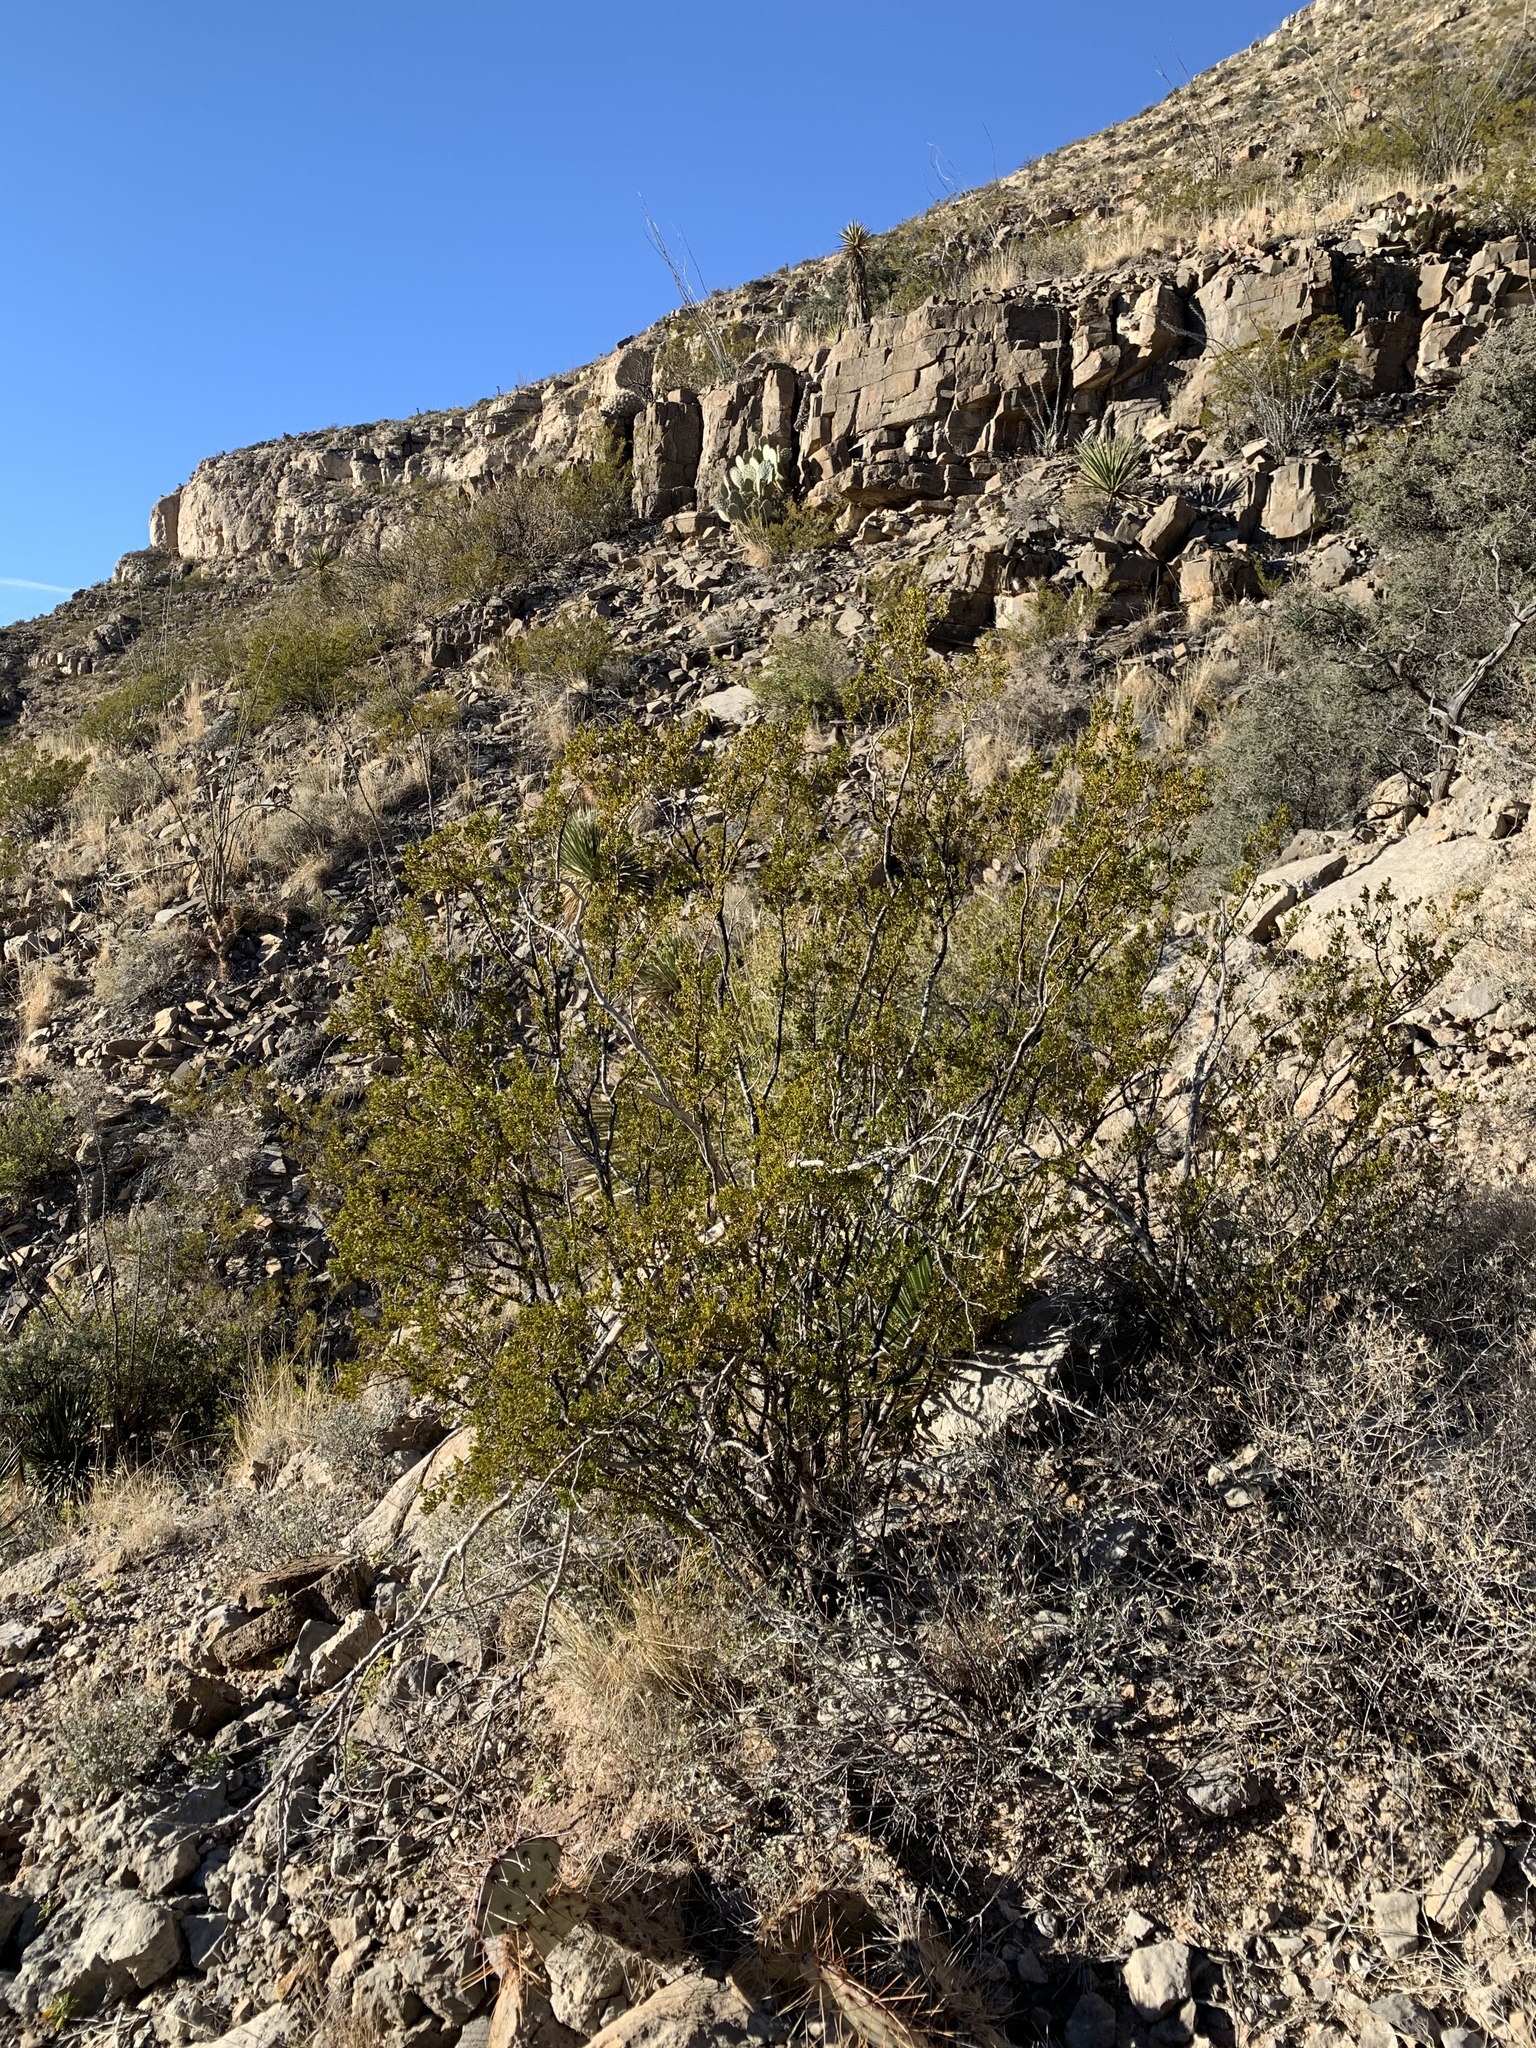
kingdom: Plantae
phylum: Tracheophyta
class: Magnoliopsida
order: Zygophyllales
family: Zygophyllaceae
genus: Larrea
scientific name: Larrea tridentata
